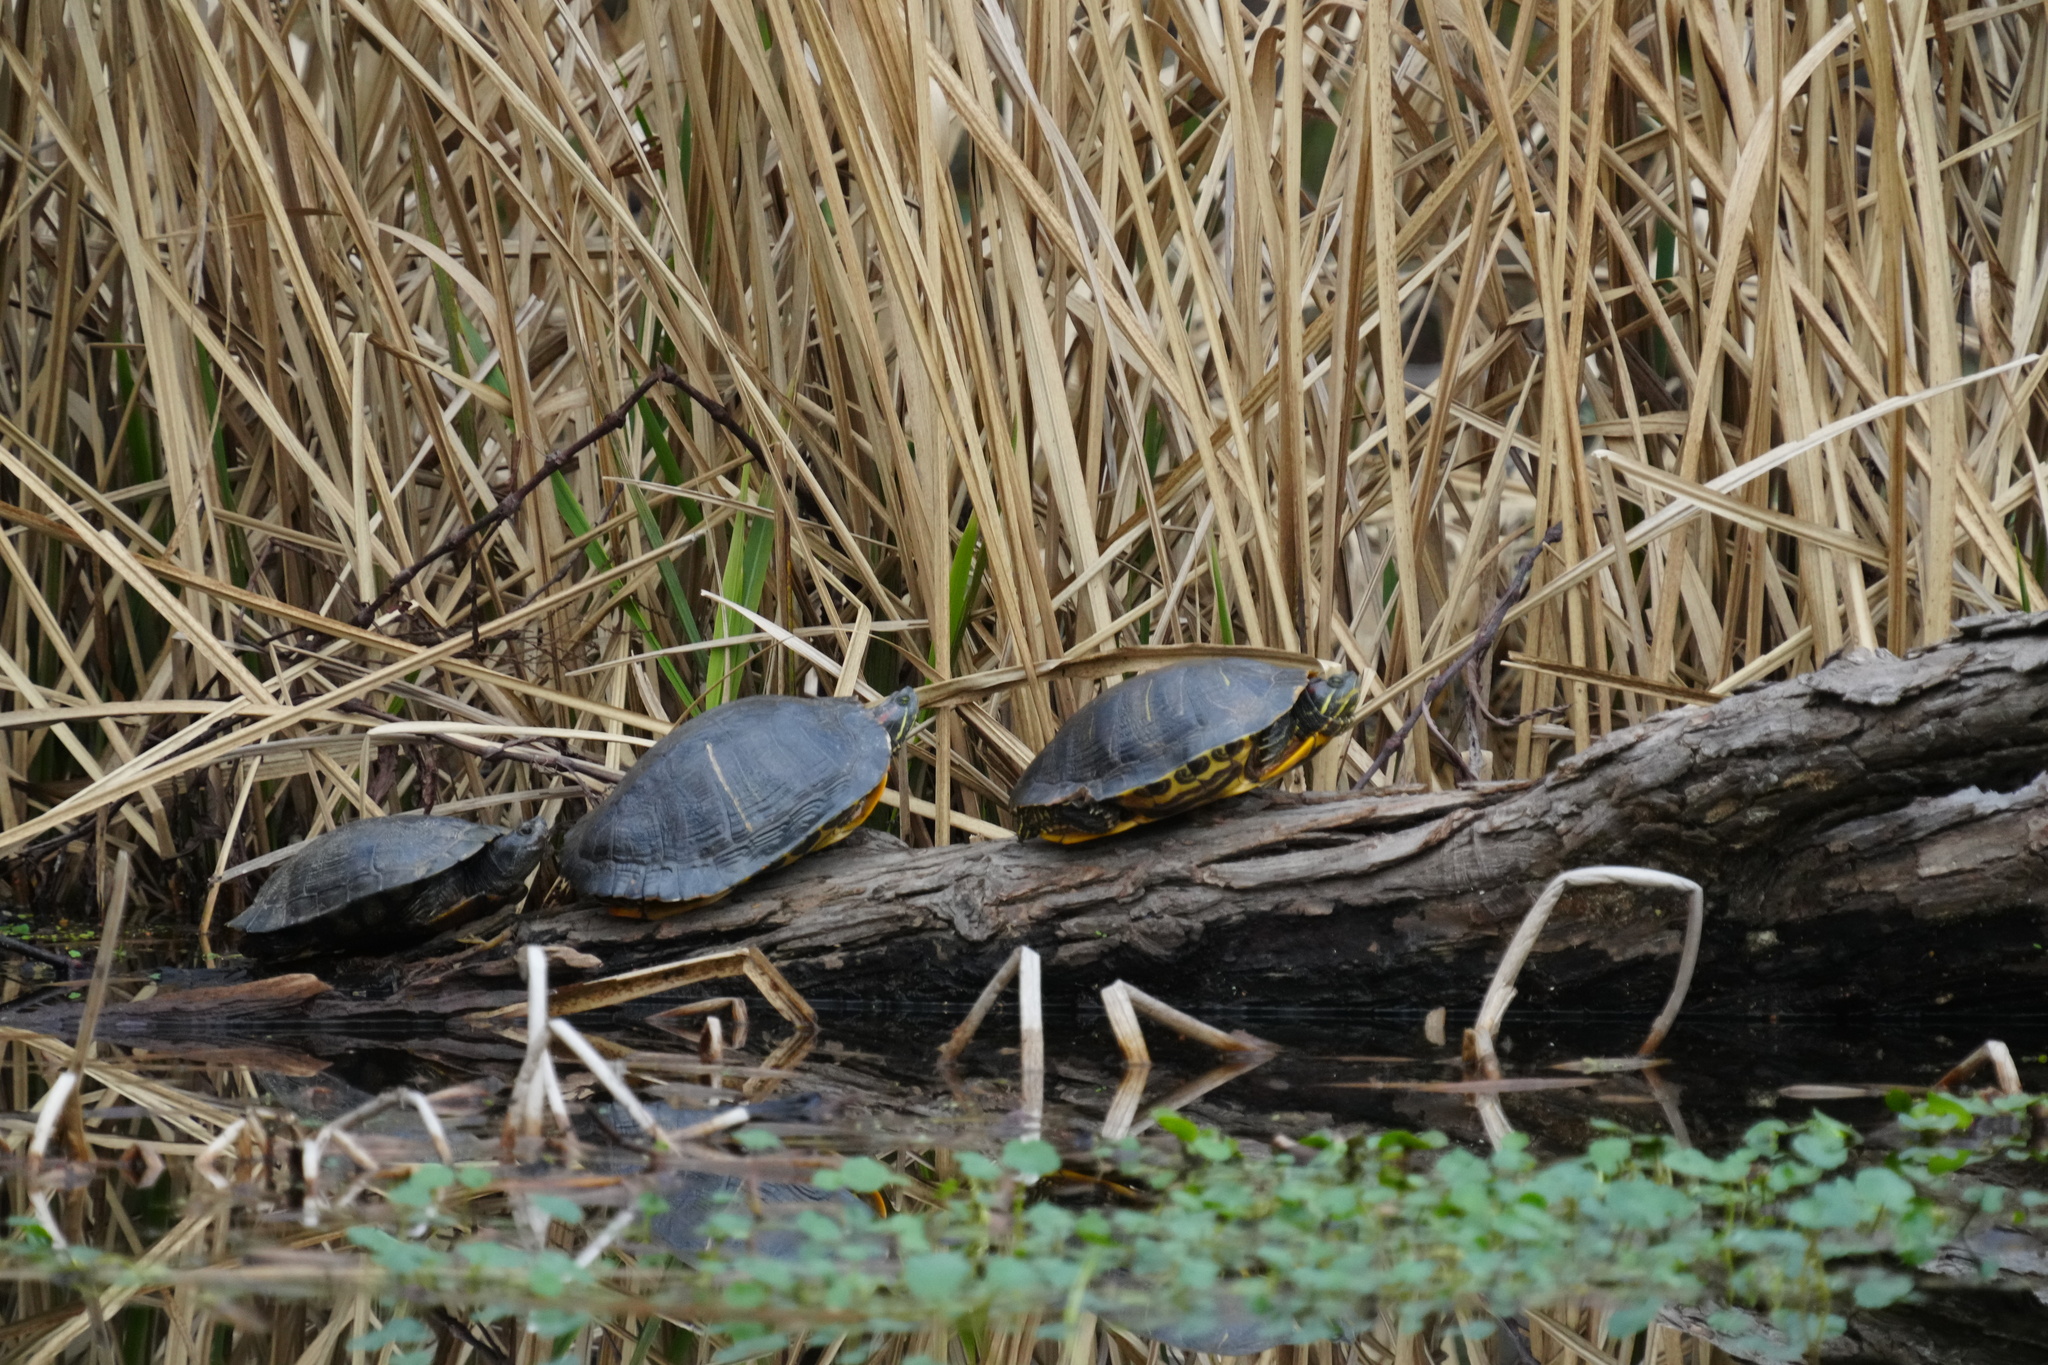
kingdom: Animalia
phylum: Chordata
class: Testudines
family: Emydidae
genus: Trachemys
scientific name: Trachemys scripta
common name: Slider
